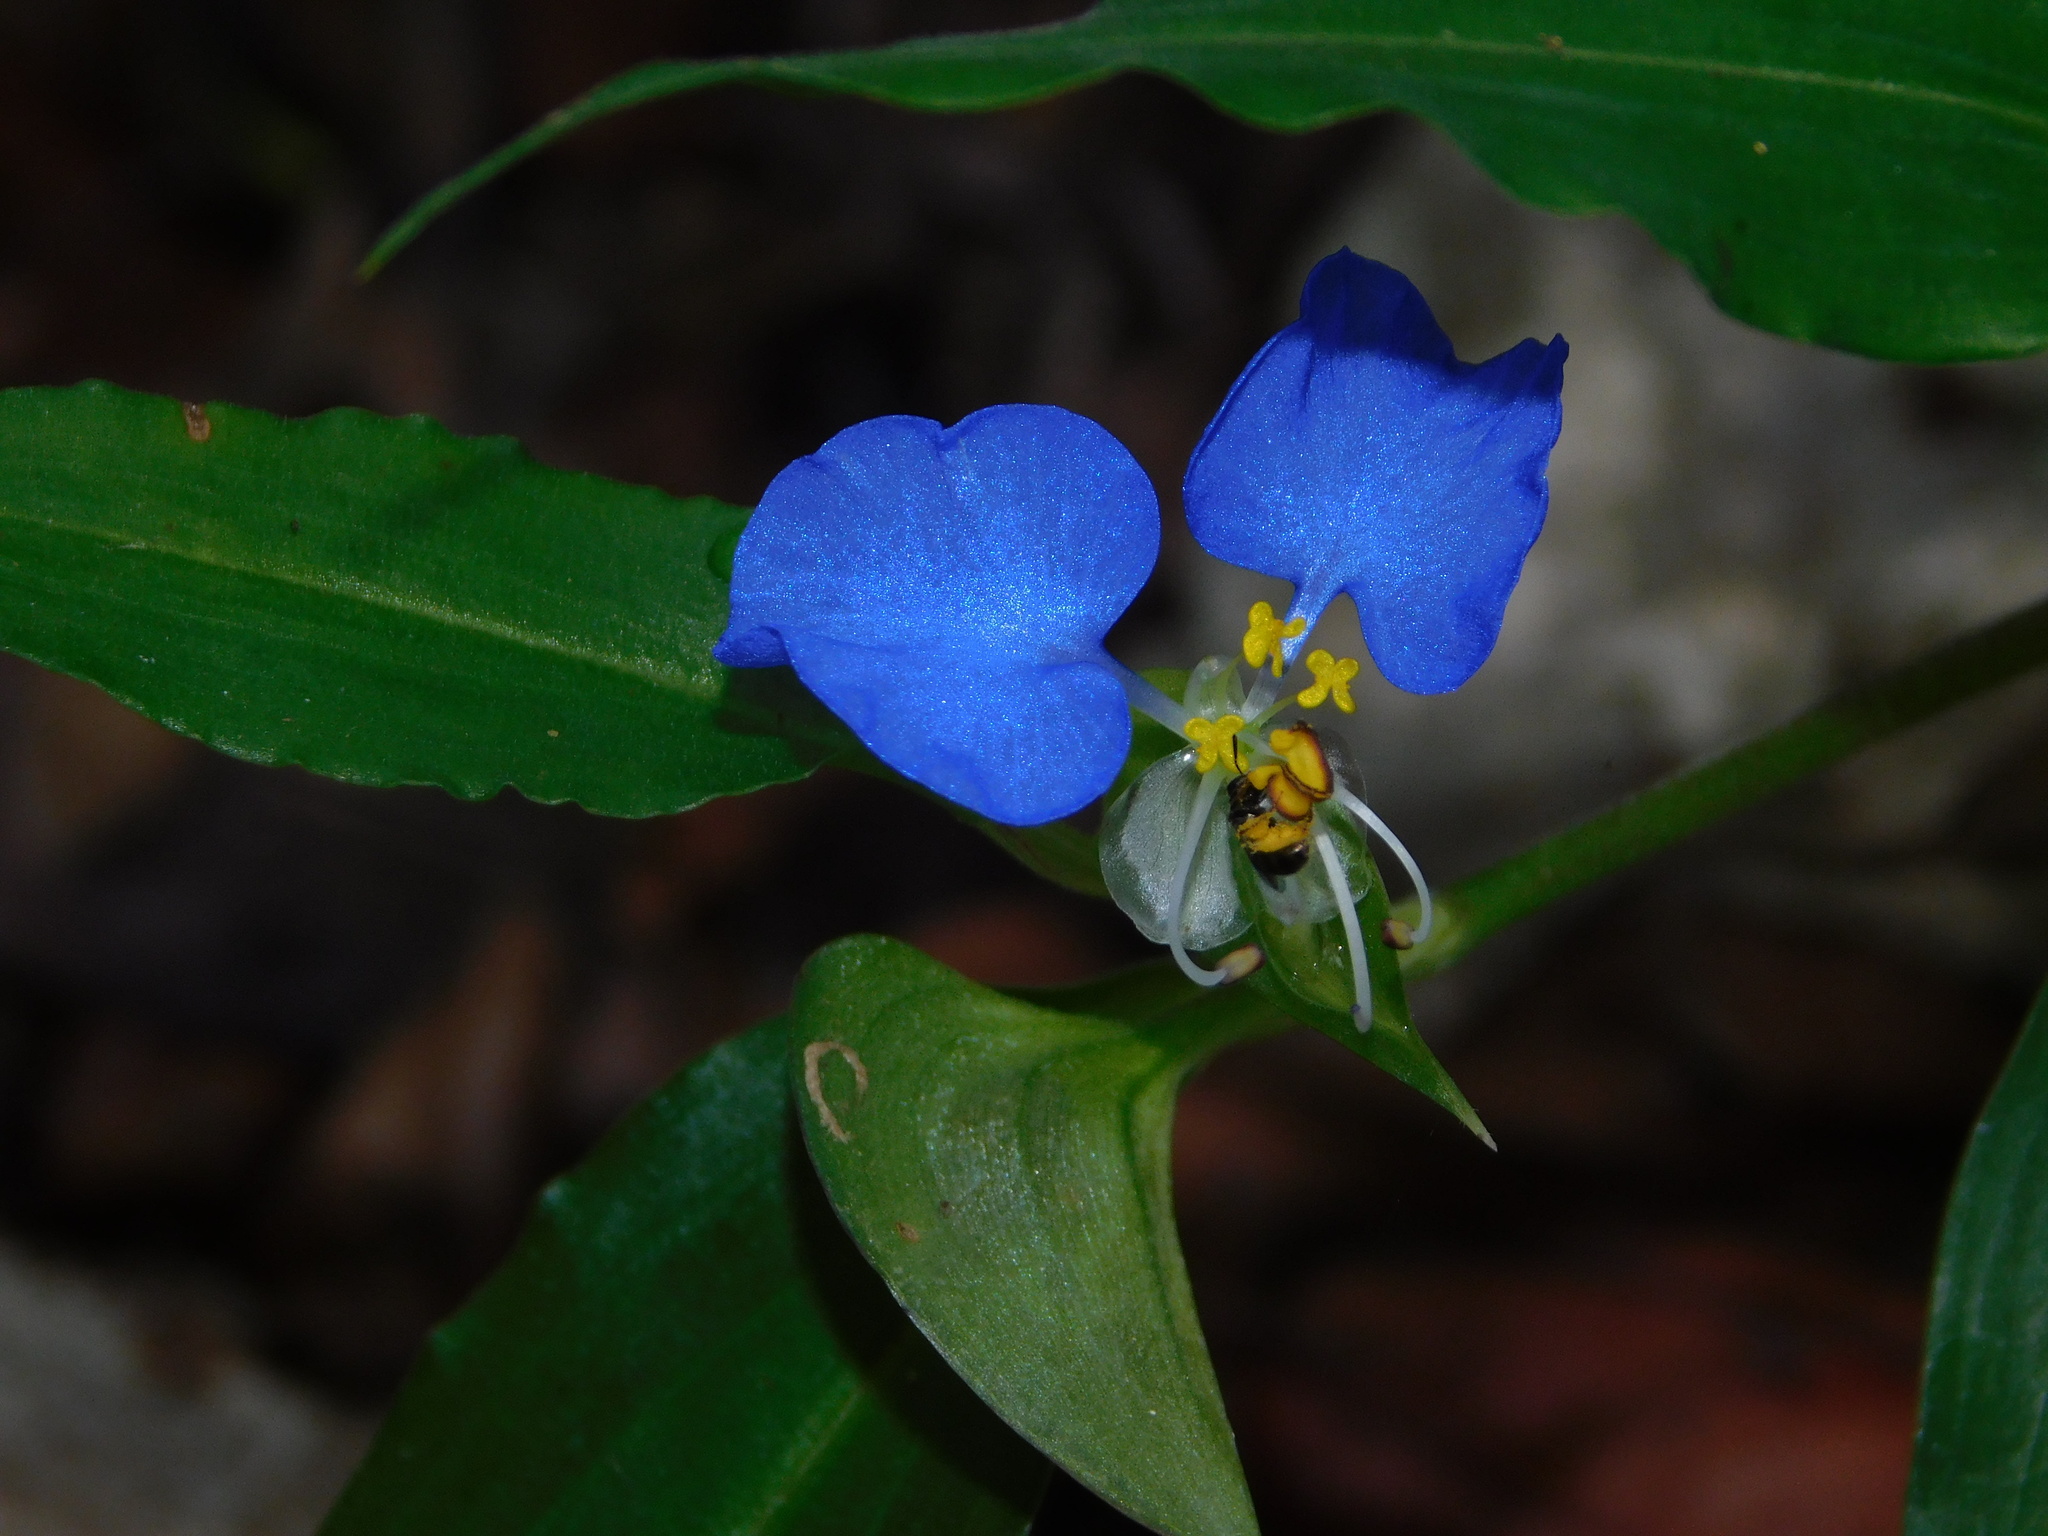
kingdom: Plantae
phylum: Tracheophyta
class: Liliopsida
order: Commelinales
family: Commelinaceae
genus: Commelina
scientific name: Commelina erecta
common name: Blousel blommetjie
